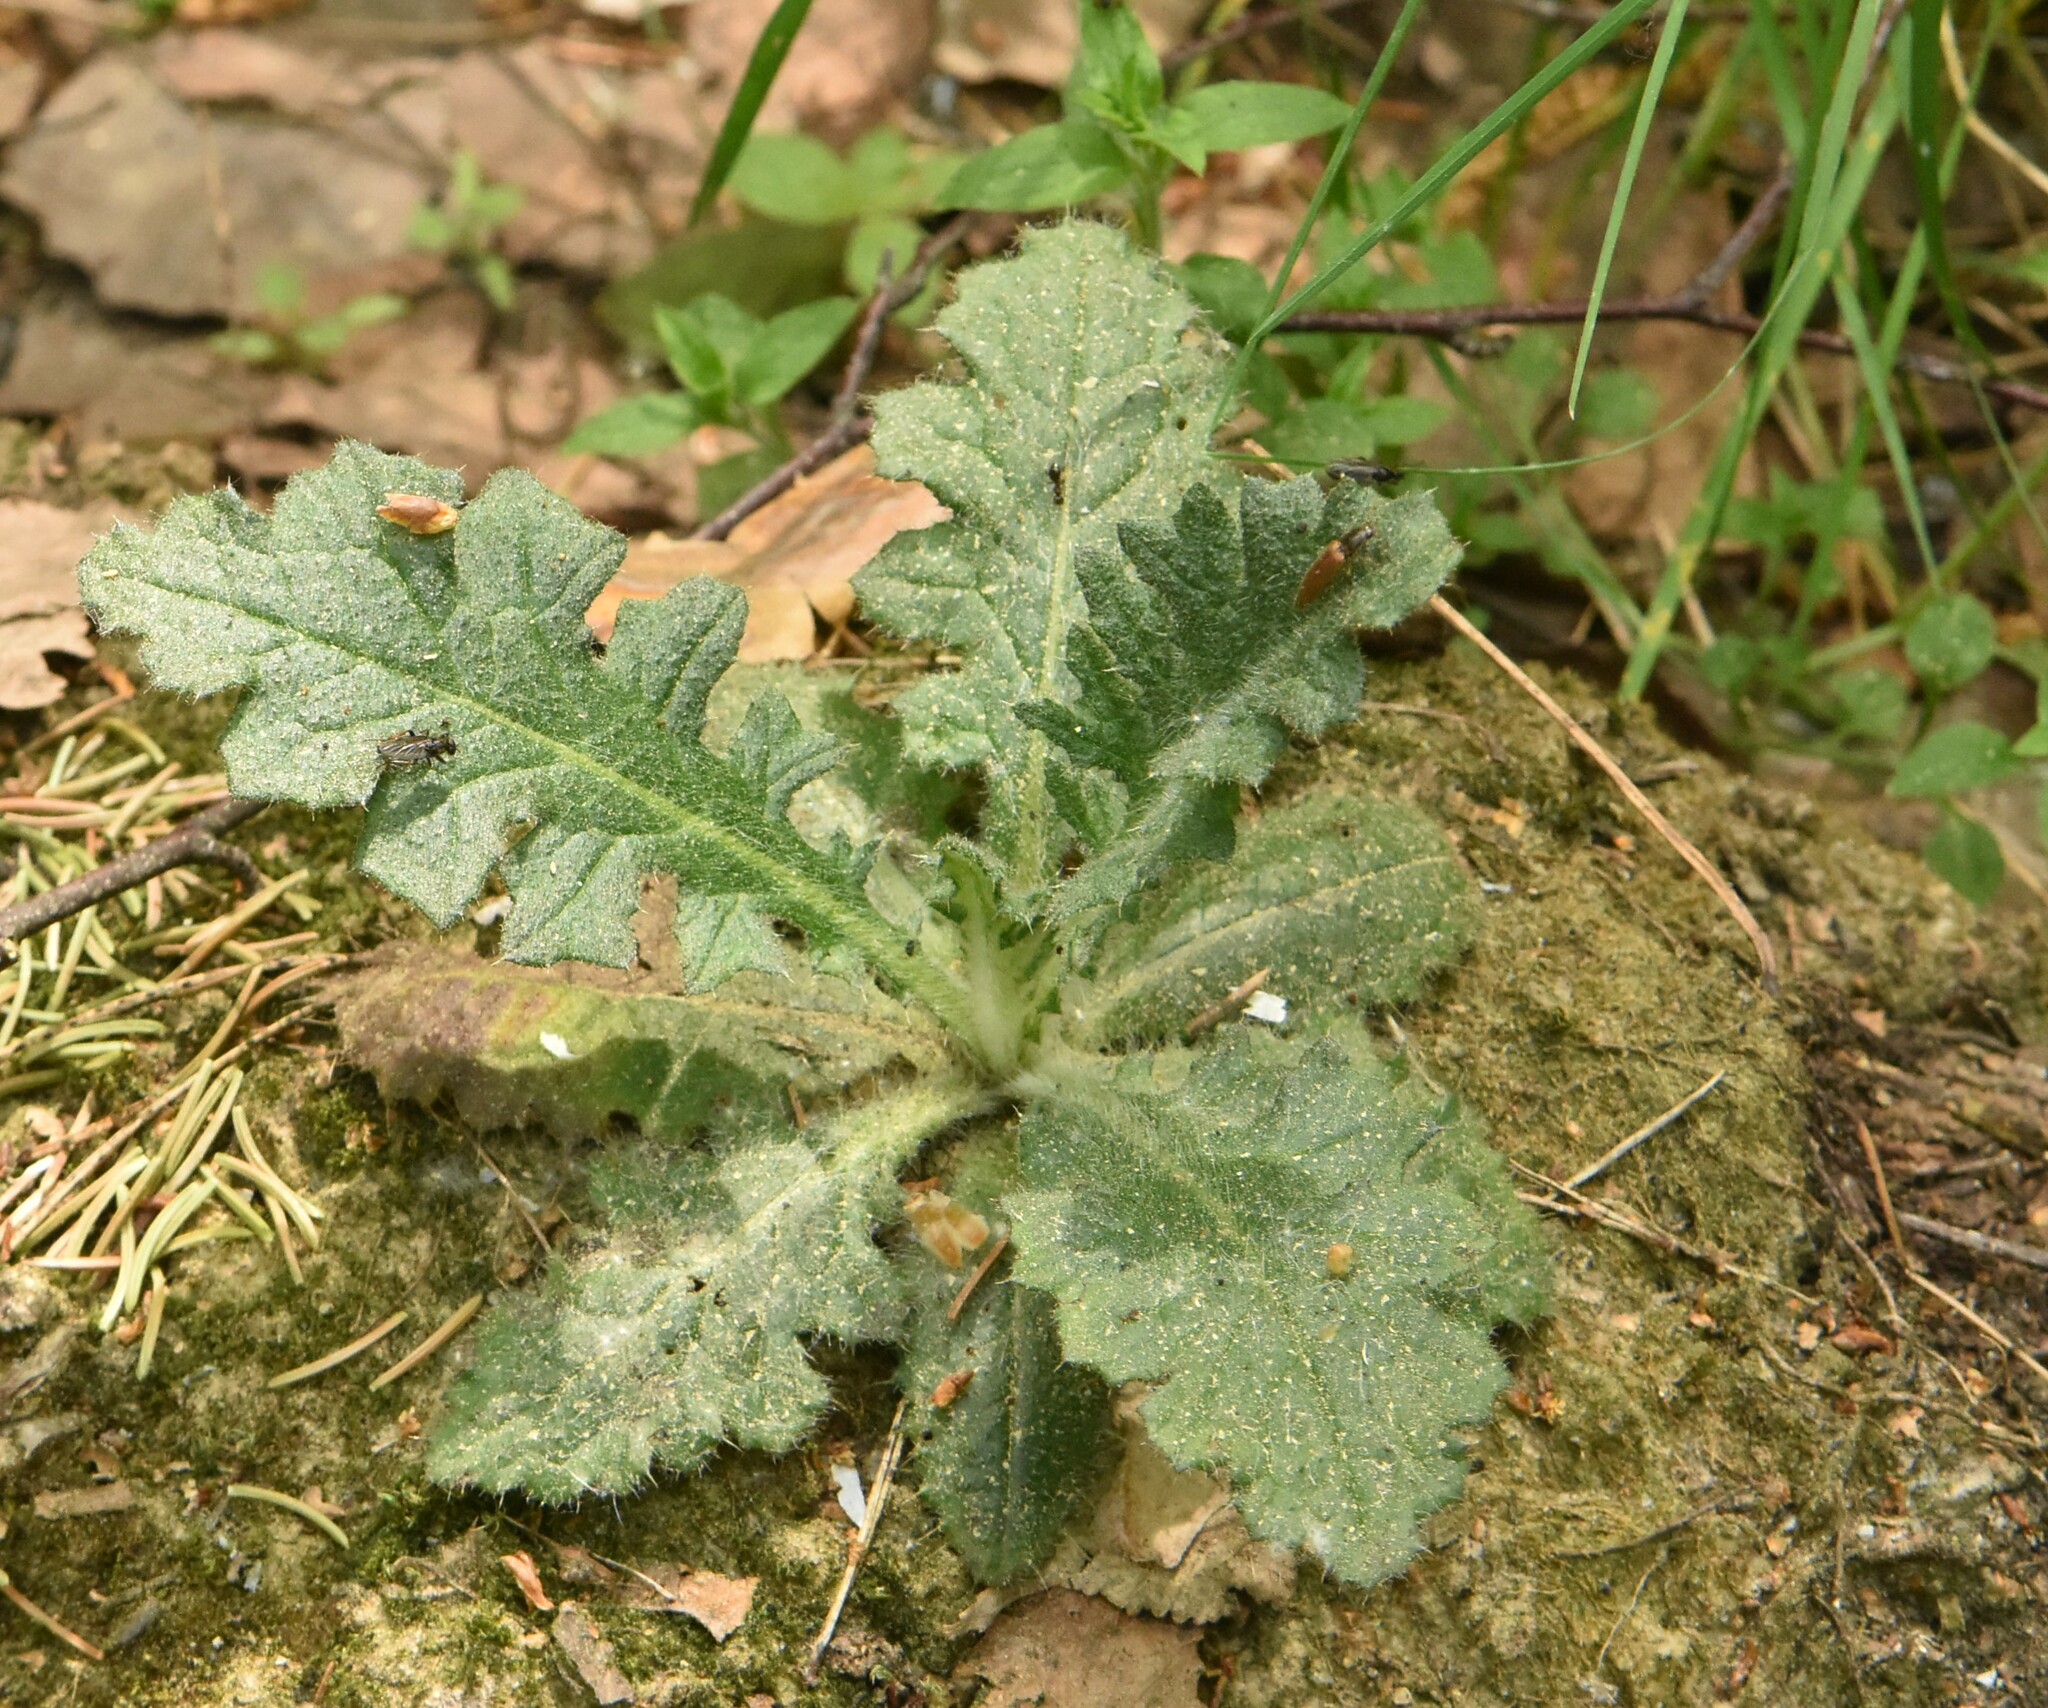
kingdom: Plantae
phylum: Tracheophyta
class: Magnoliopsida
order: Asterales
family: Asteraceae
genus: Cirsium
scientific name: Cirsium vulgare
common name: Bull thistle
